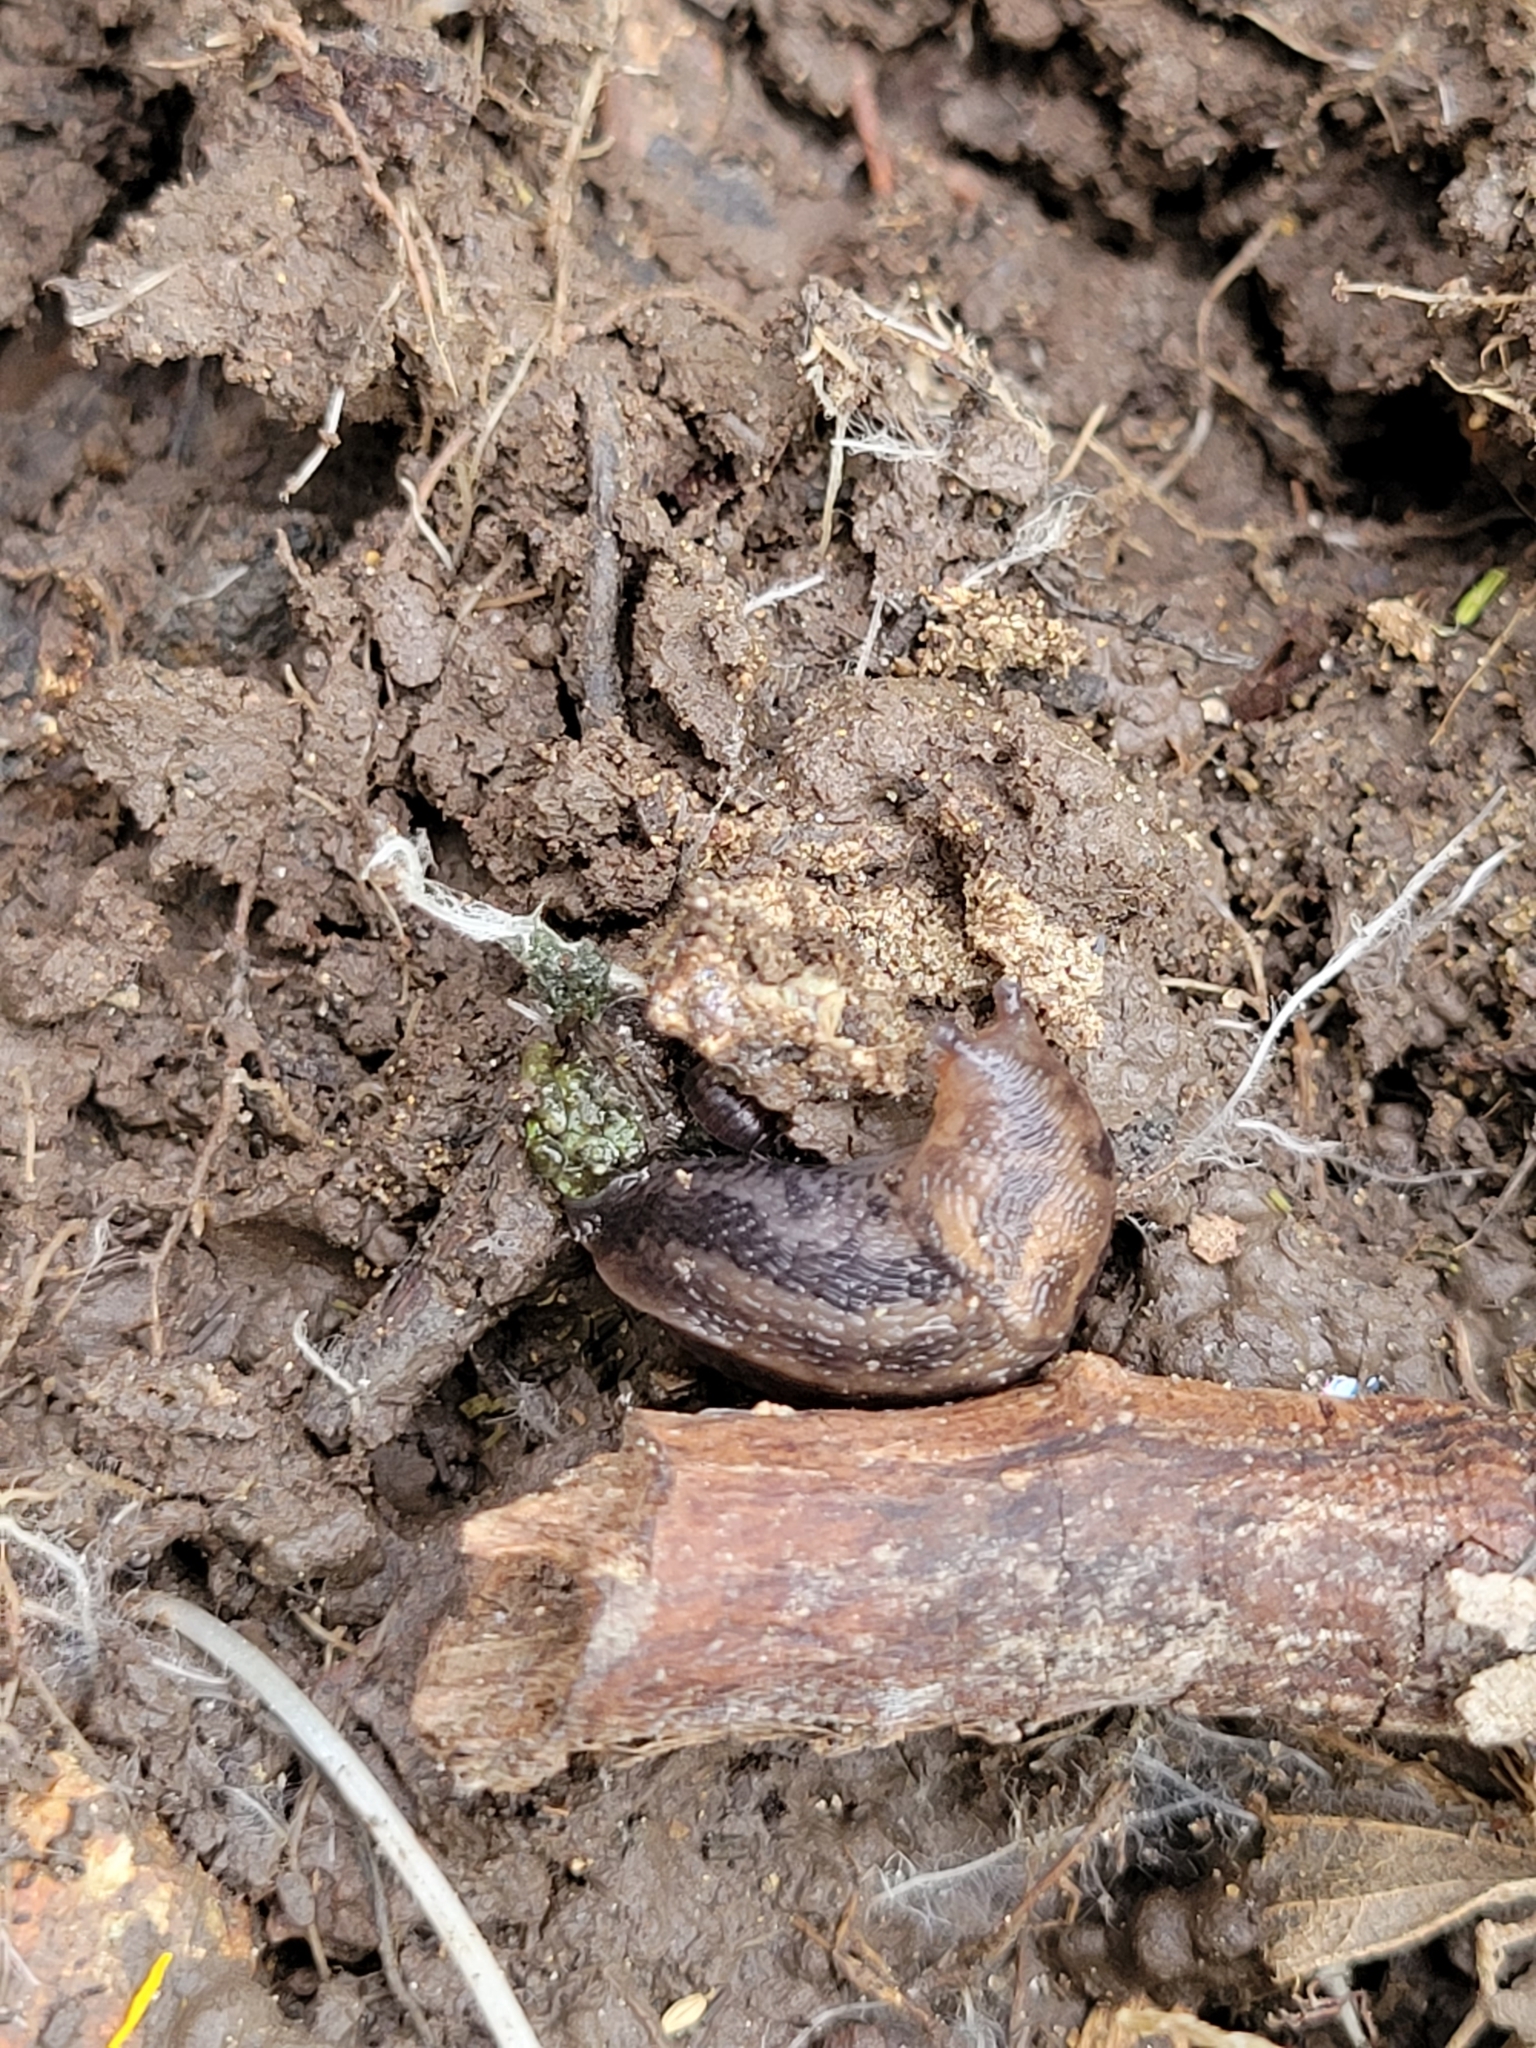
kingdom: Animalia
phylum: Mollusca
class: Gastropoda
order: Stylommatophora
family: Limacidae
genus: Limax
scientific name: Limax maximus
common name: Great grey slug
